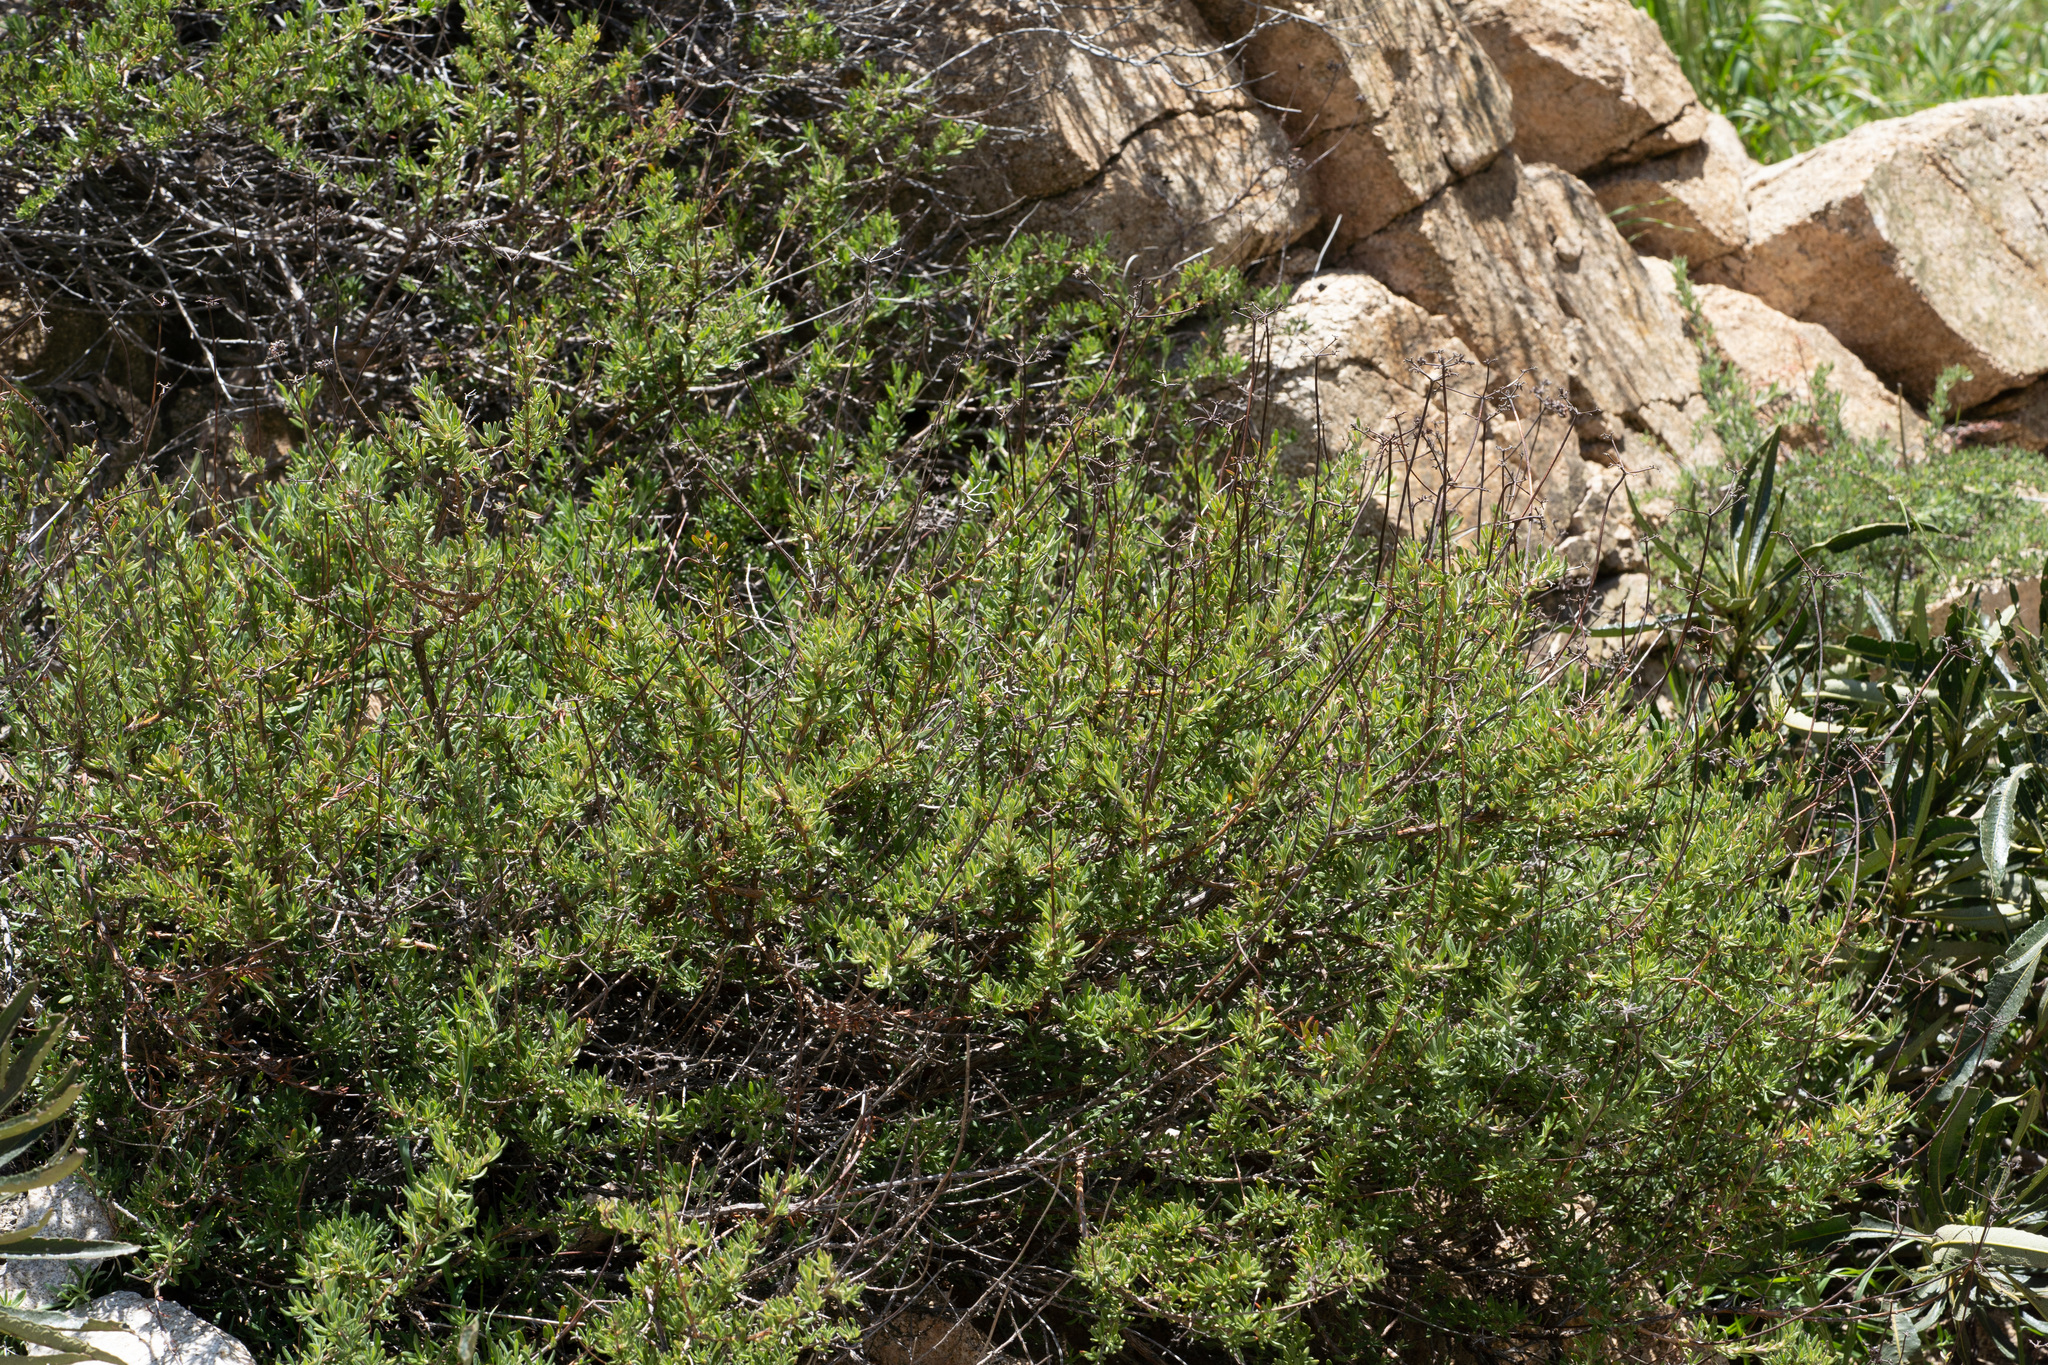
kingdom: Plantae
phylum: Tracheophyta
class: Magnoliopsida
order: Caryophyllales
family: Polygonaceae
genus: Eriogonum
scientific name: Eriogonum fasciculatum
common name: California wild buckwheat
